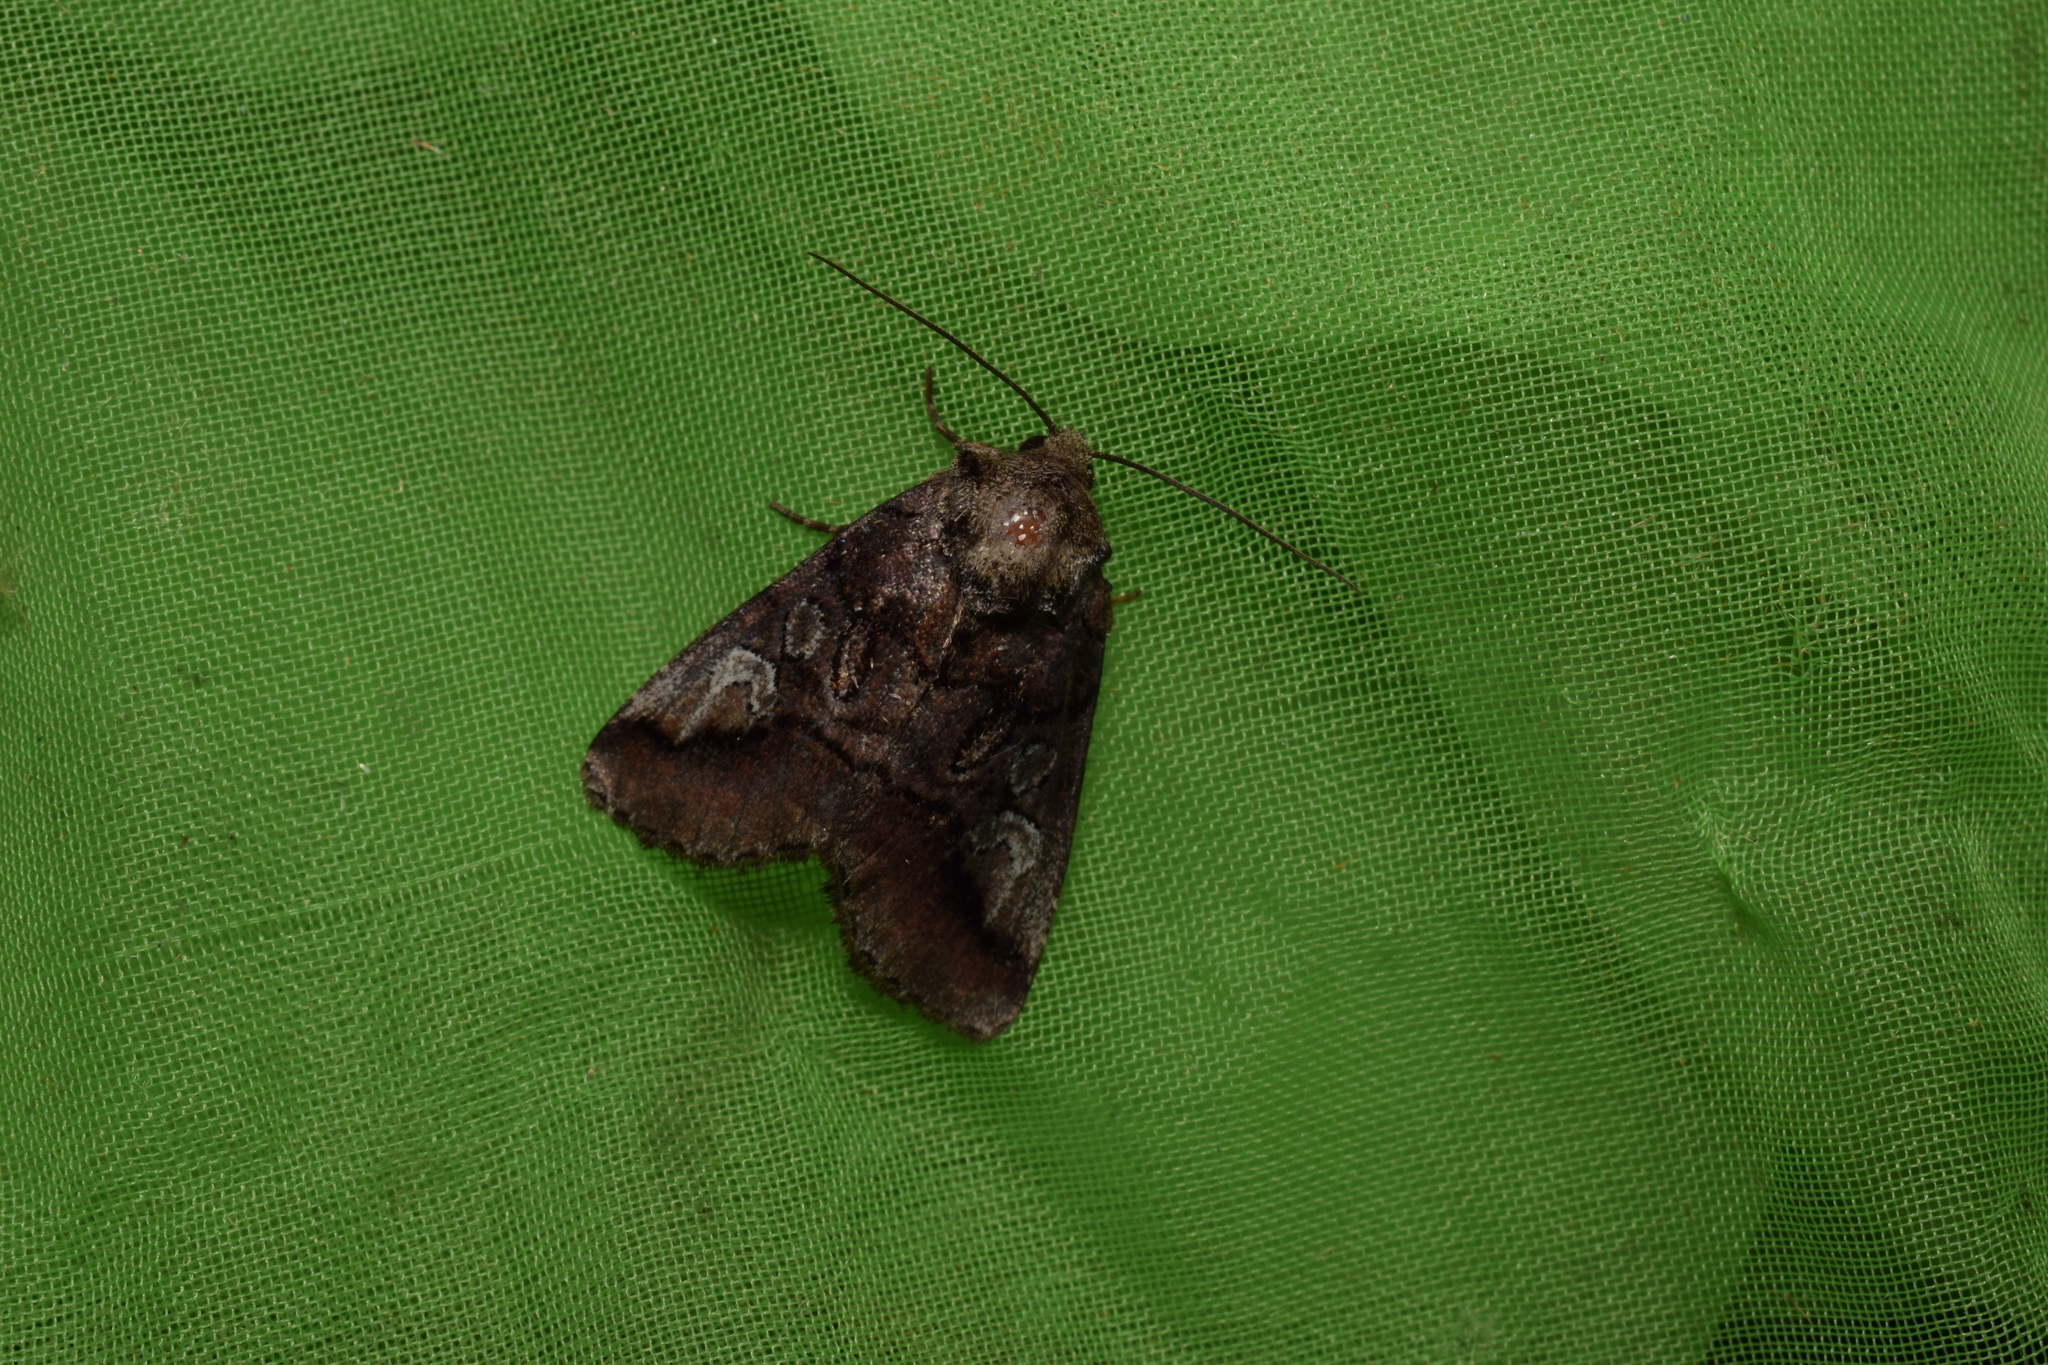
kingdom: Animalia
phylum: Arthropoda
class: Insecta
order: Lepidoptera
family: Noctuidae
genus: Protomiselia
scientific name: Protomiselia bilinea
